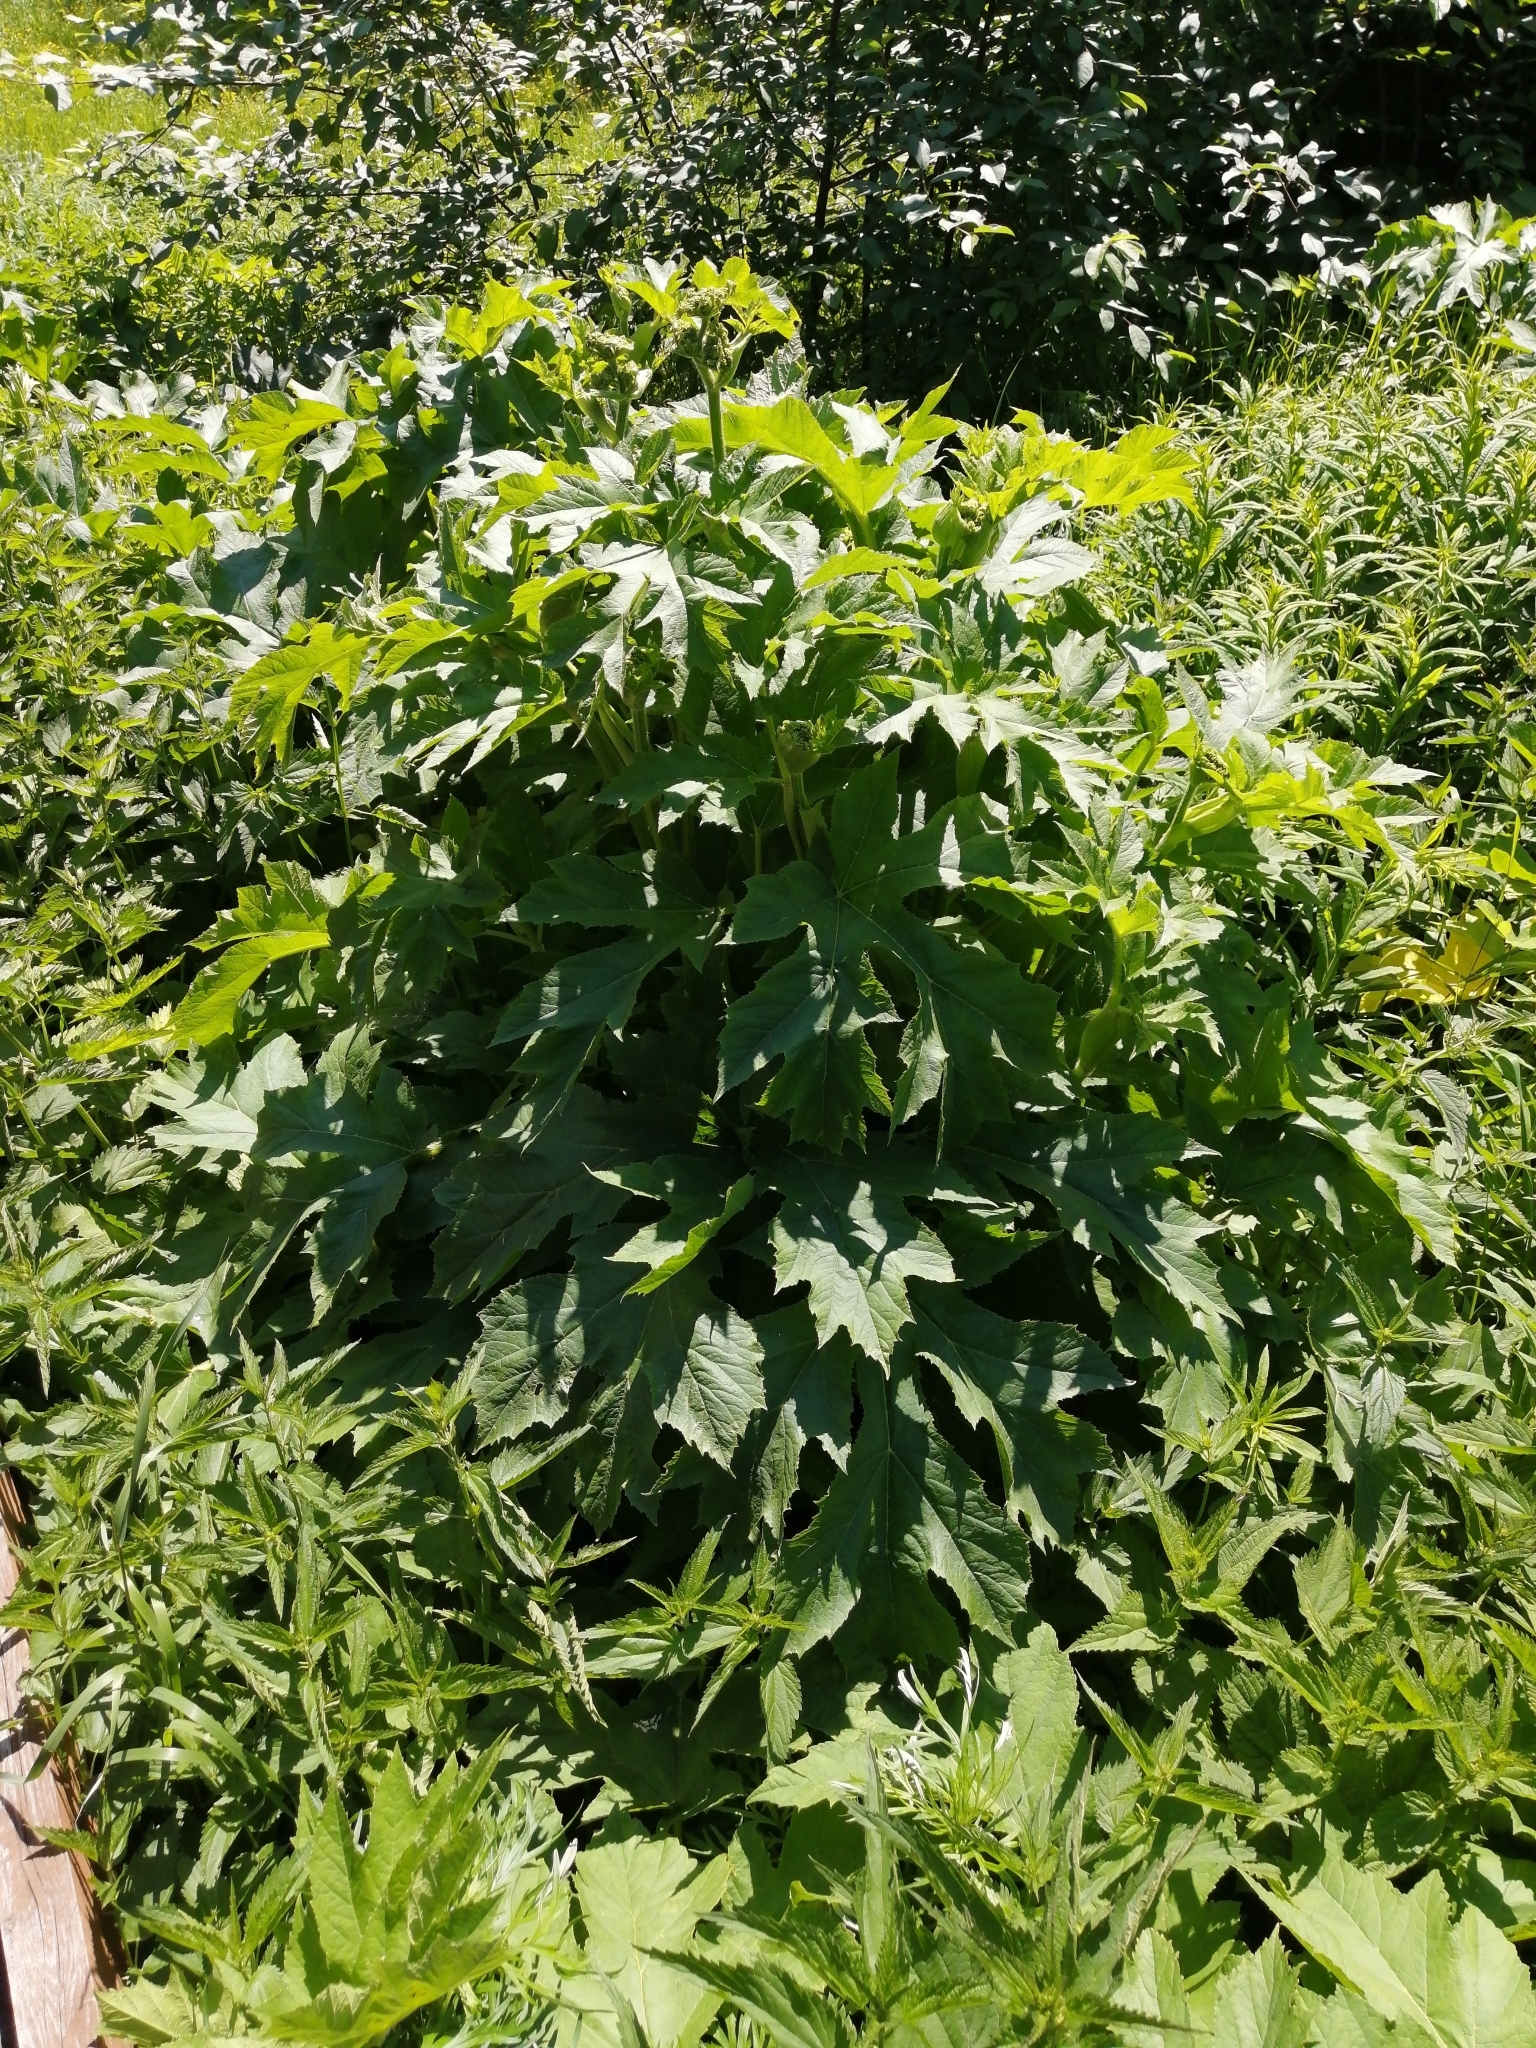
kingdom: Plantae
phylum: Tracheophyta
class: Magnoliopsida
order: Apiales
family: Apiaceae
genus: Heracleum
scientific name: Heracleum sphondylium
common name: Hogweed
